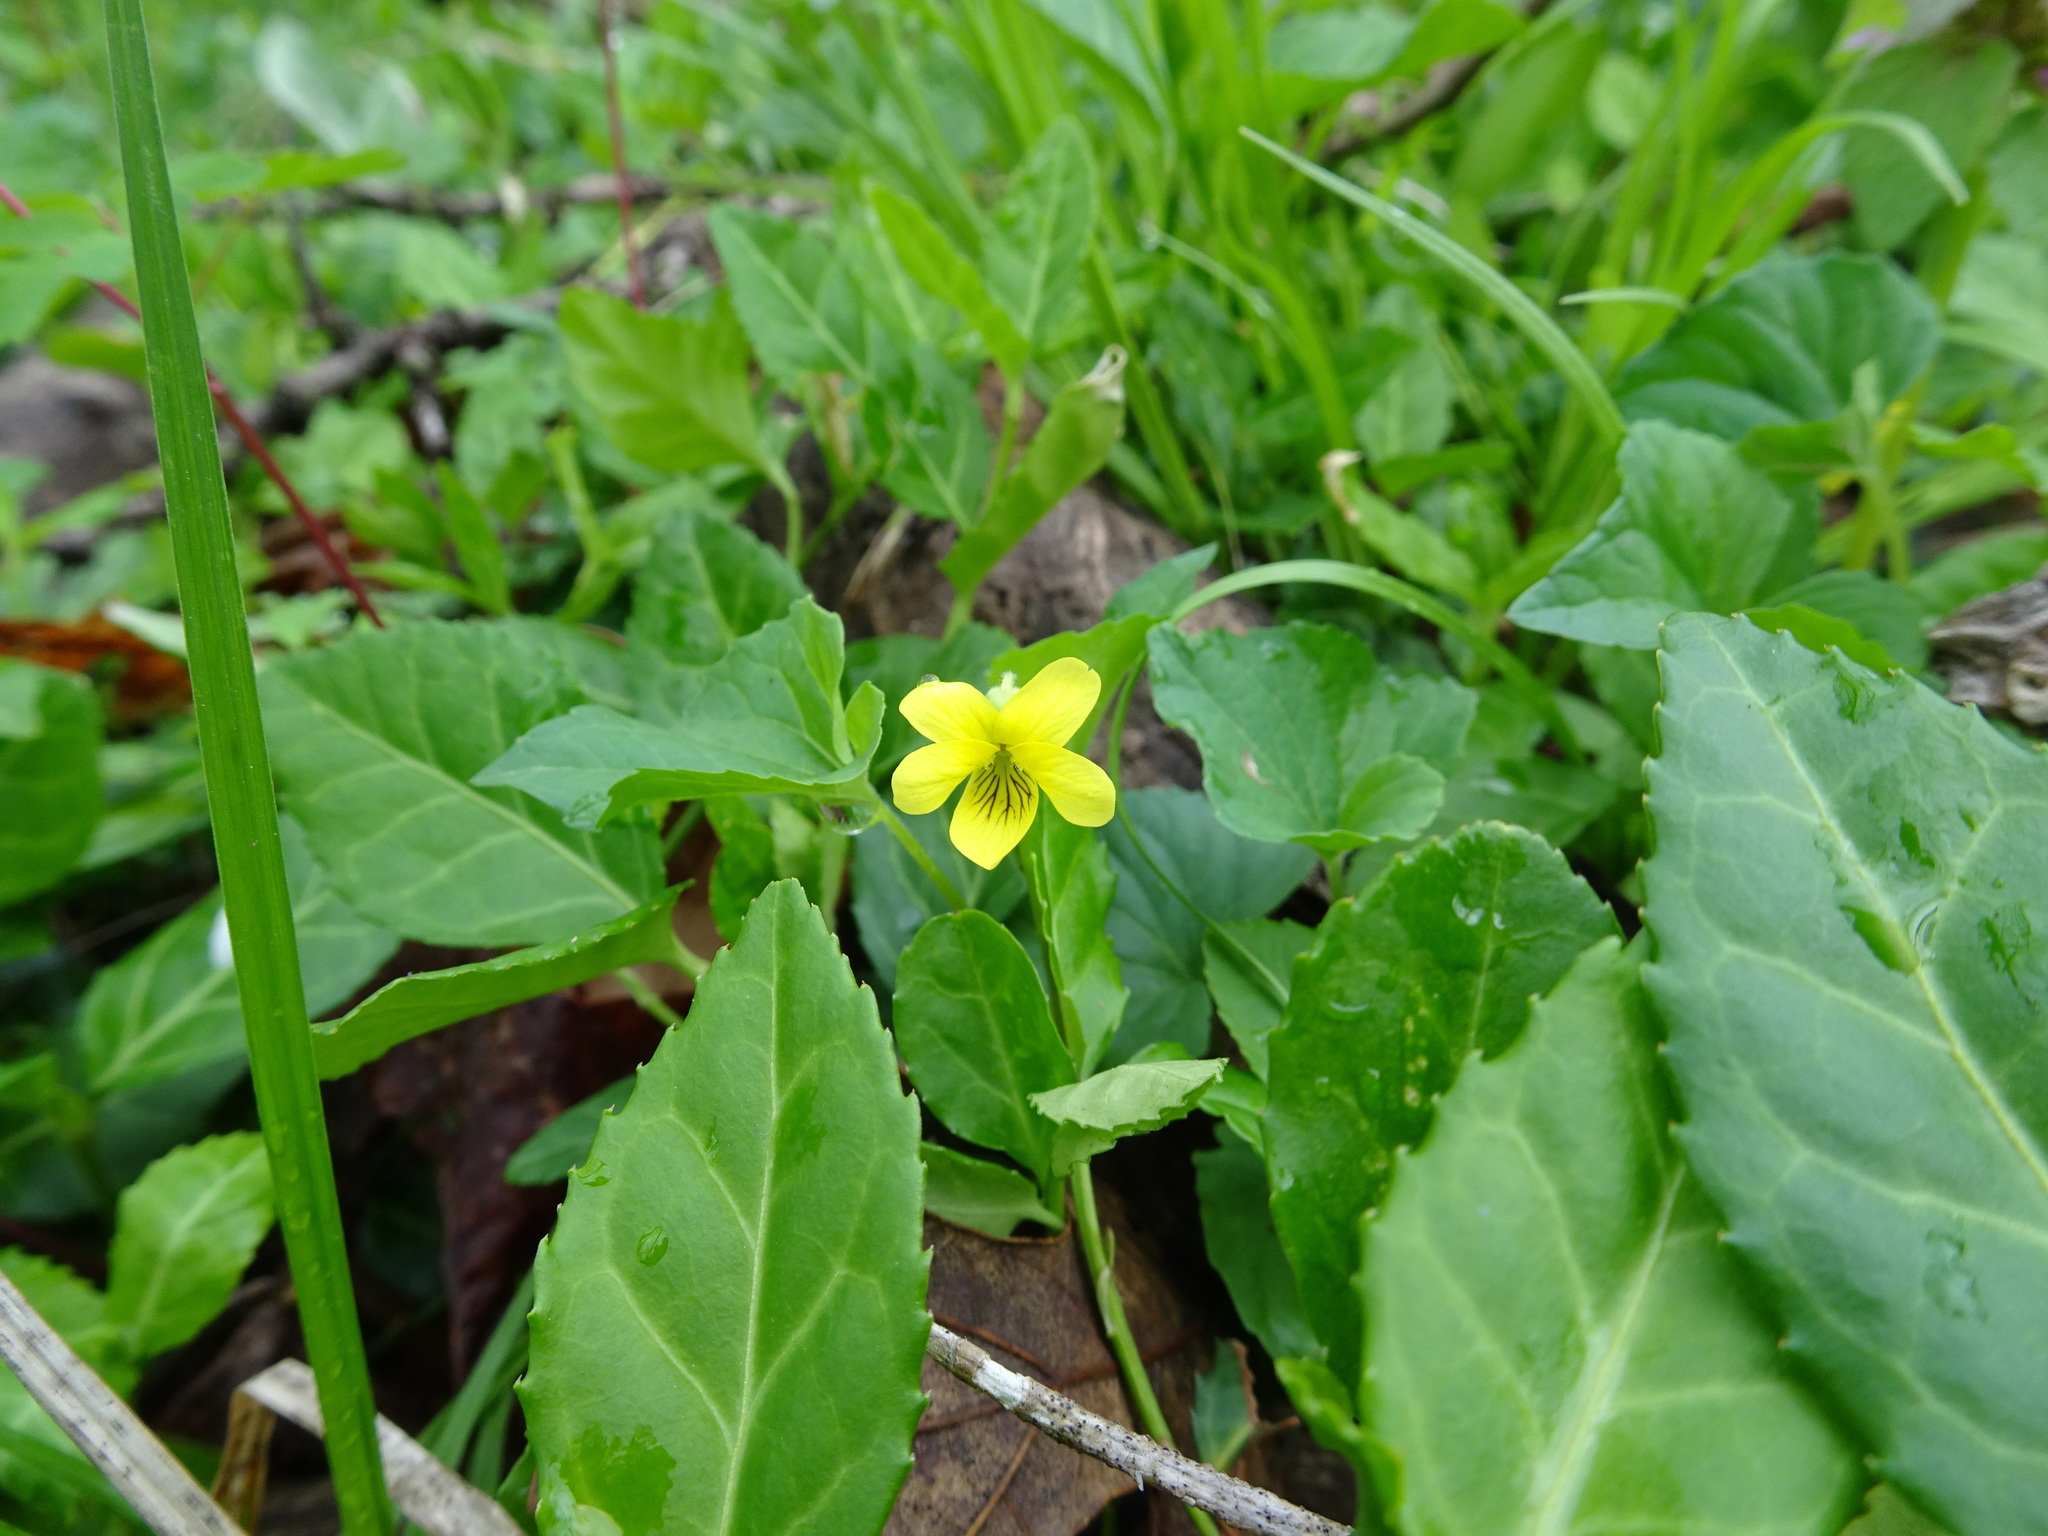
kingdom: Plantae
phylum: Tracheophyta
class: Magnoliopsida
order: Malpighiales
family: Violaceae
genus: Viola
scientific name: Viola eriocarpa
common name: Smooth yellow violet
